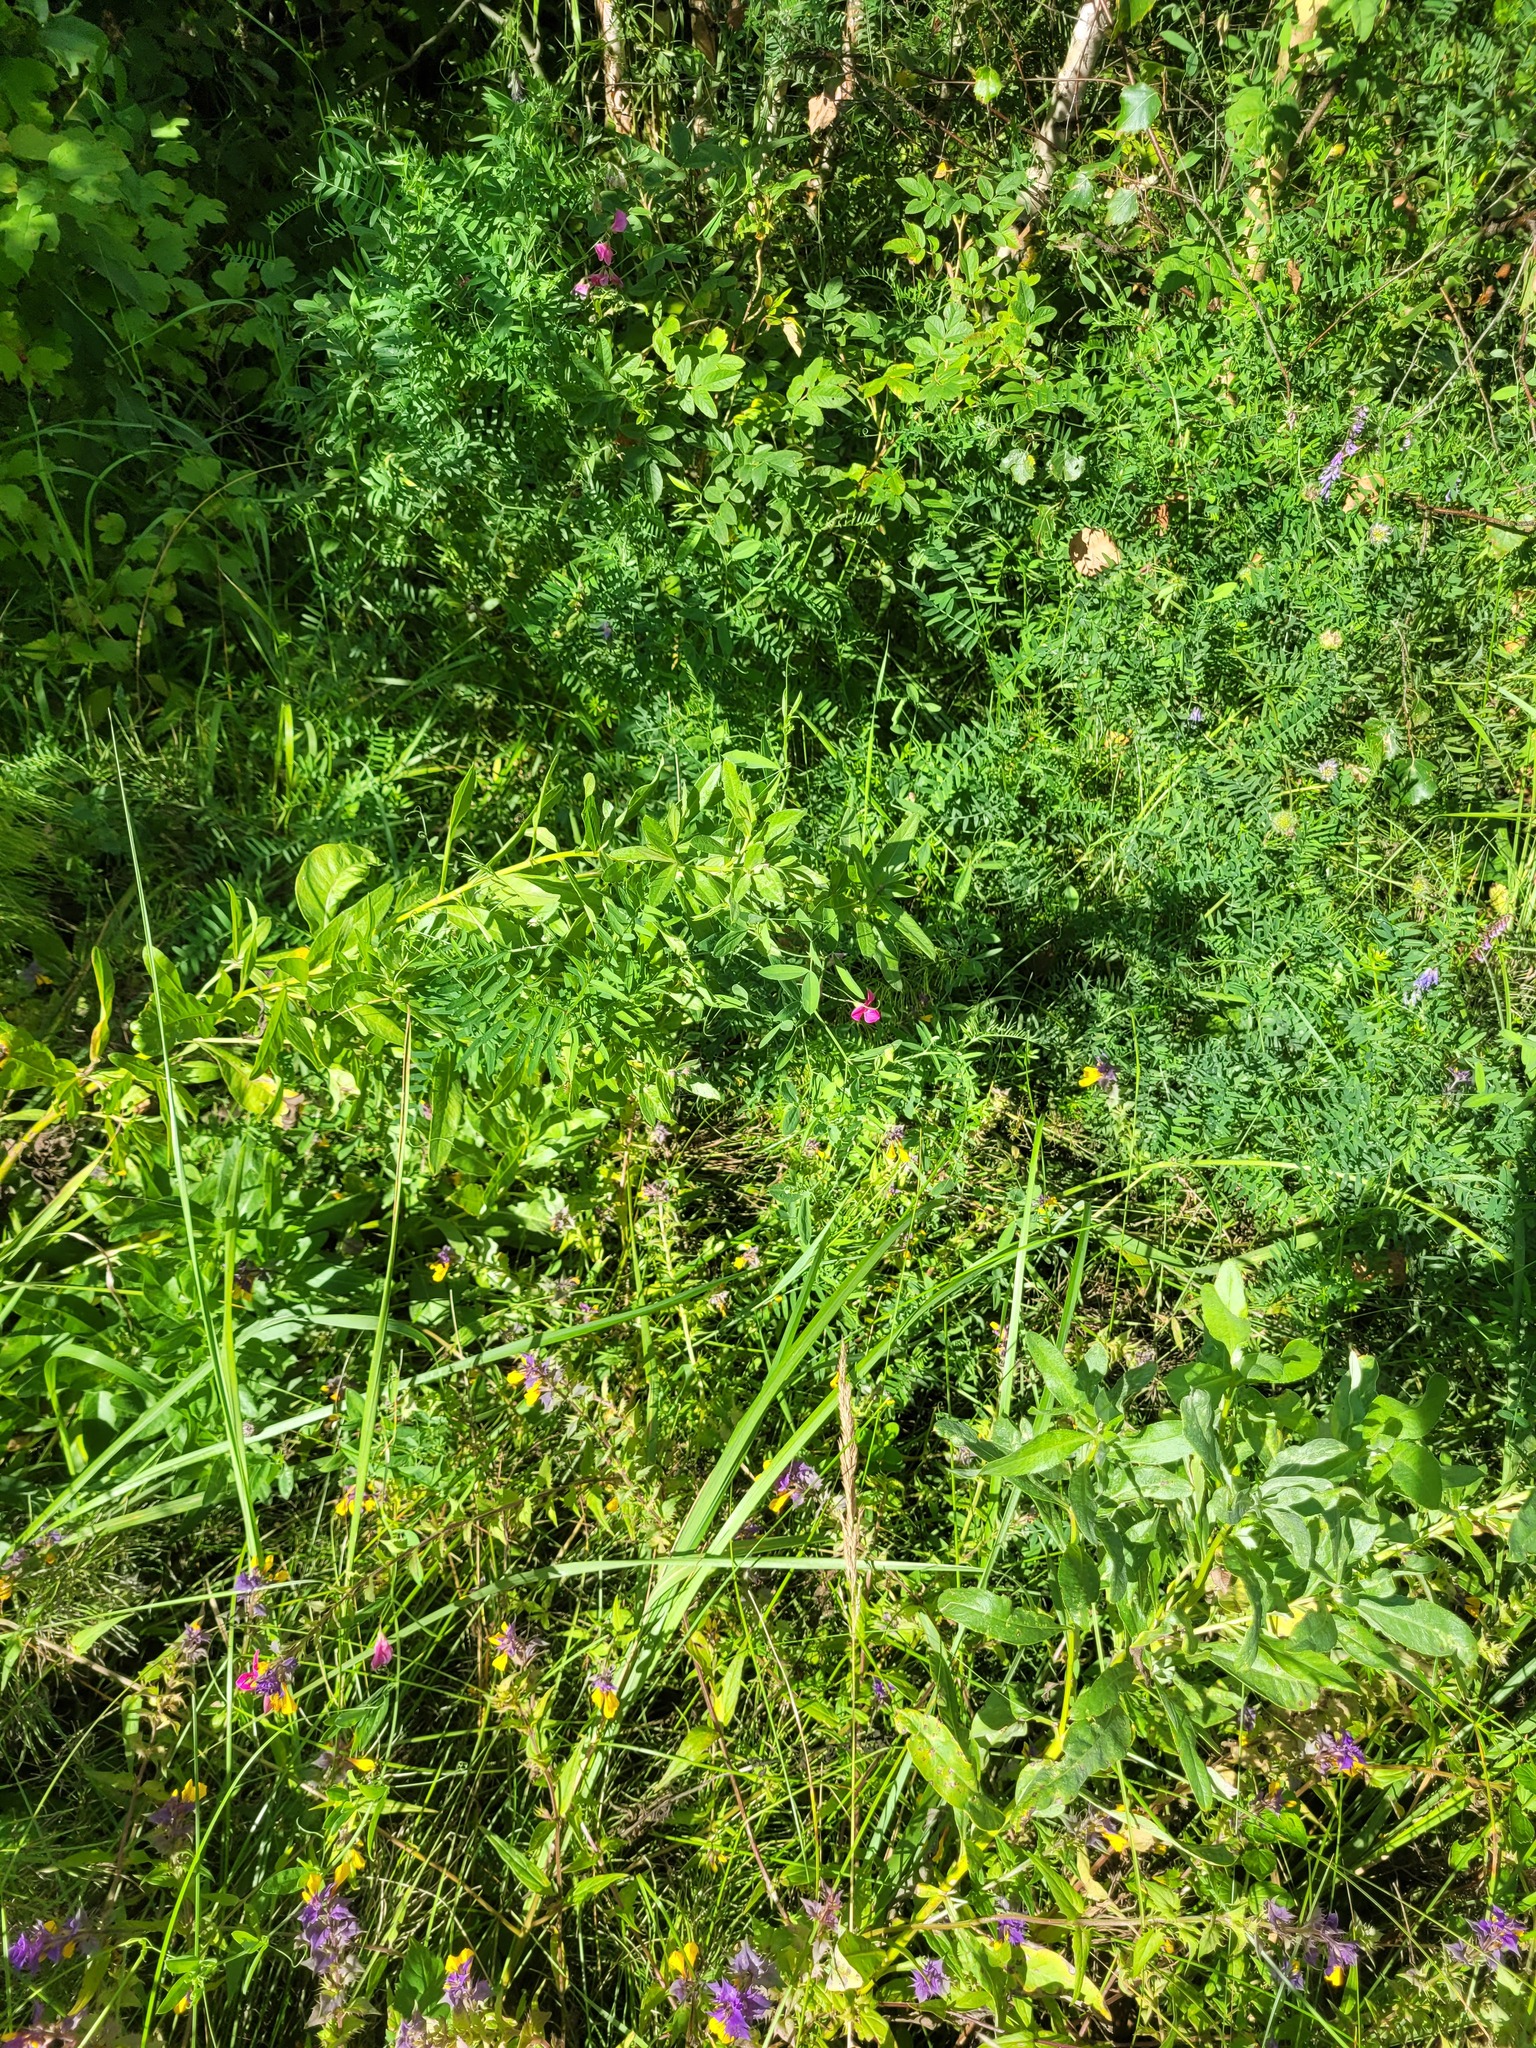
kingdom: Plantae
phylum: Tracheophyta
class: Magnoliopsida
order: Fabales
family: Fabaceae
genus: Lathyrus
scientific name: Lathyrus tuberosus
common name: Tuberous pea
